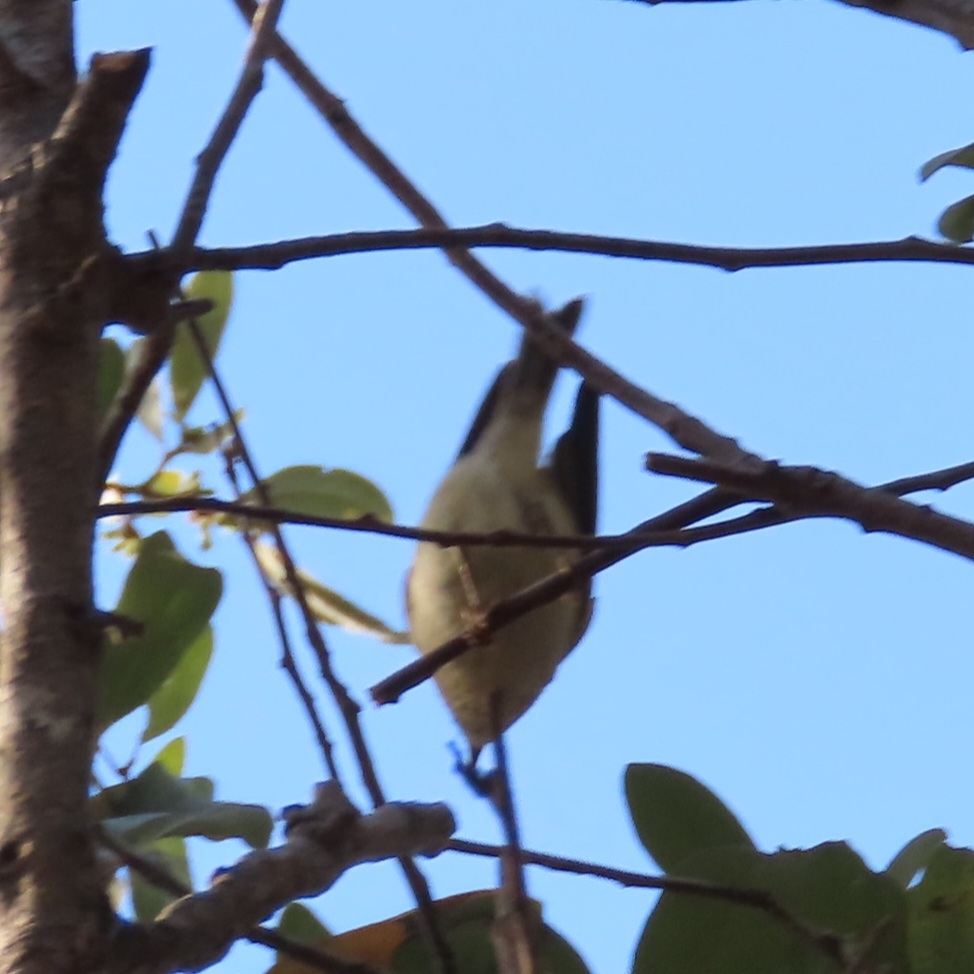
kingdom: Animalia
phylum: Chordata
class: Aves
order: Passeriformes
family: Regulidae
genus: Regulus
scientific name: Regulus calendula
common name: Ruby-crowned kinglet
